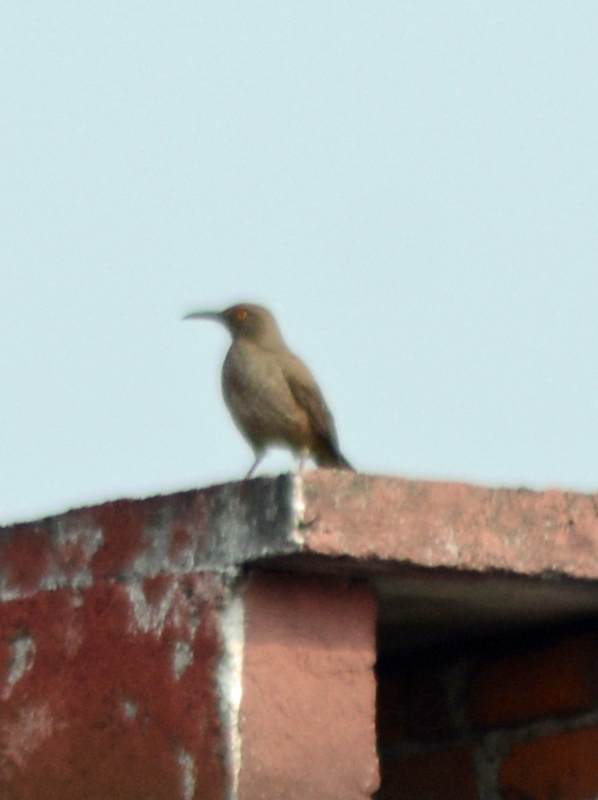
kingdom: Animalia
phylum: Chordata
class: Aves
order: Passeriformes
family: Mimidae
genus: Toxostoma
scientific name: Toxostoma curvirostre
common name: Curve-billed thrasher
